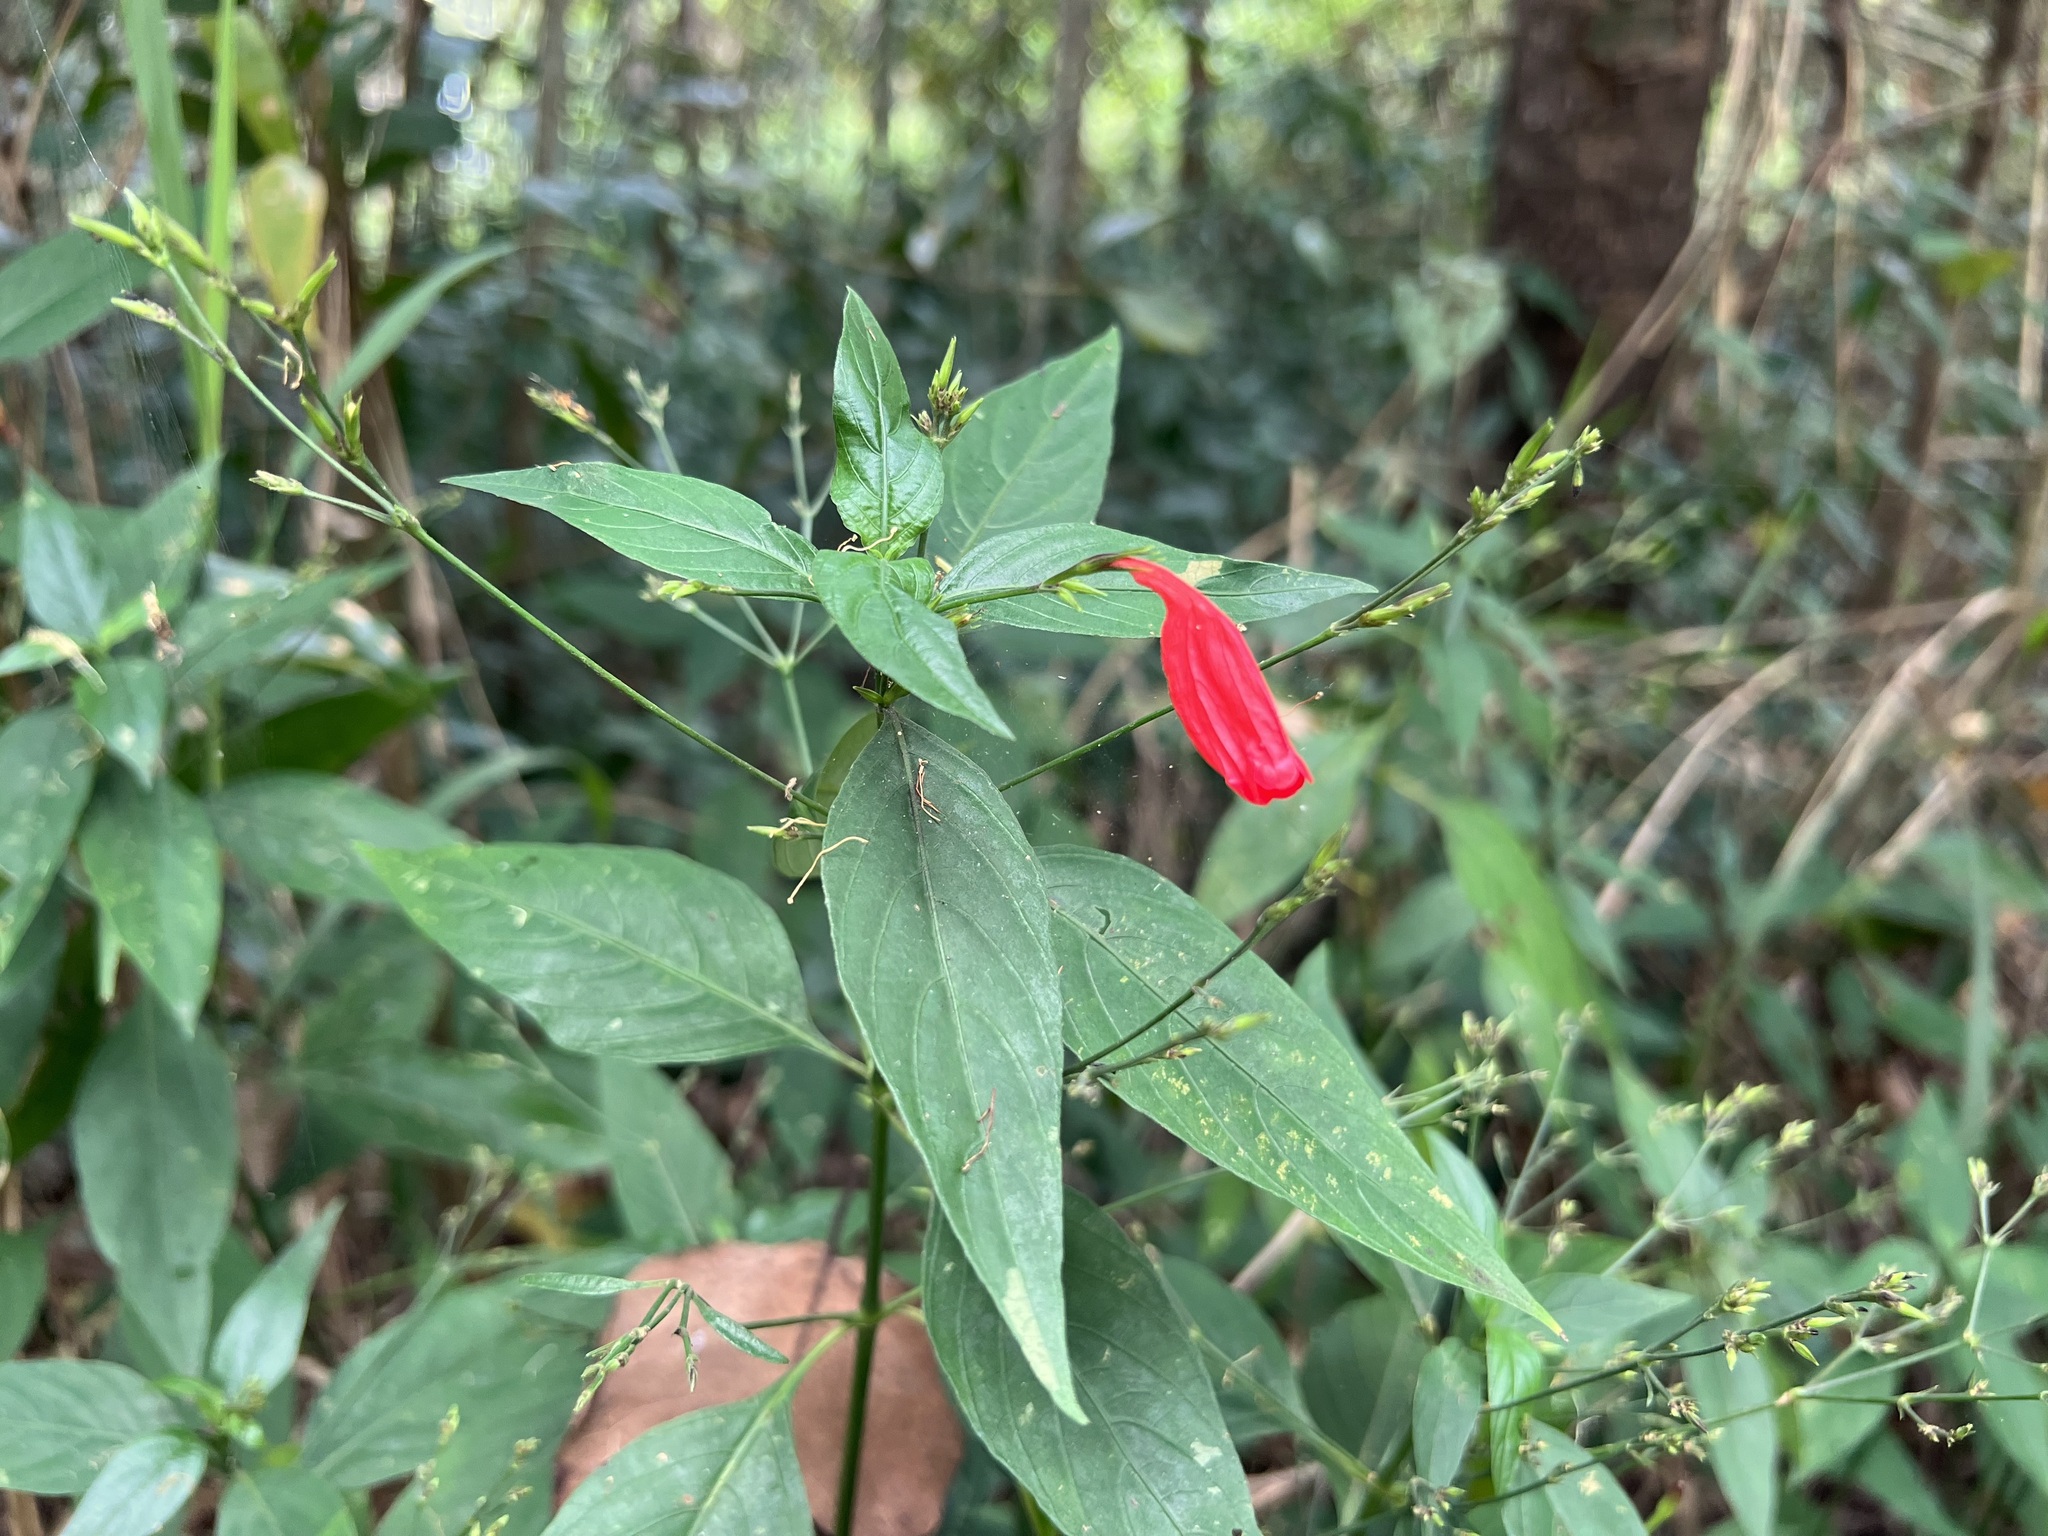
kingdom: Plantae
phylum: Tracheophyta
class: Magnoliopsida
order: Lamiales
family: Acanthaceae
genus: Ruellia
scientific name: Ruellia brevifolia
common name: Tropical wild petunia
